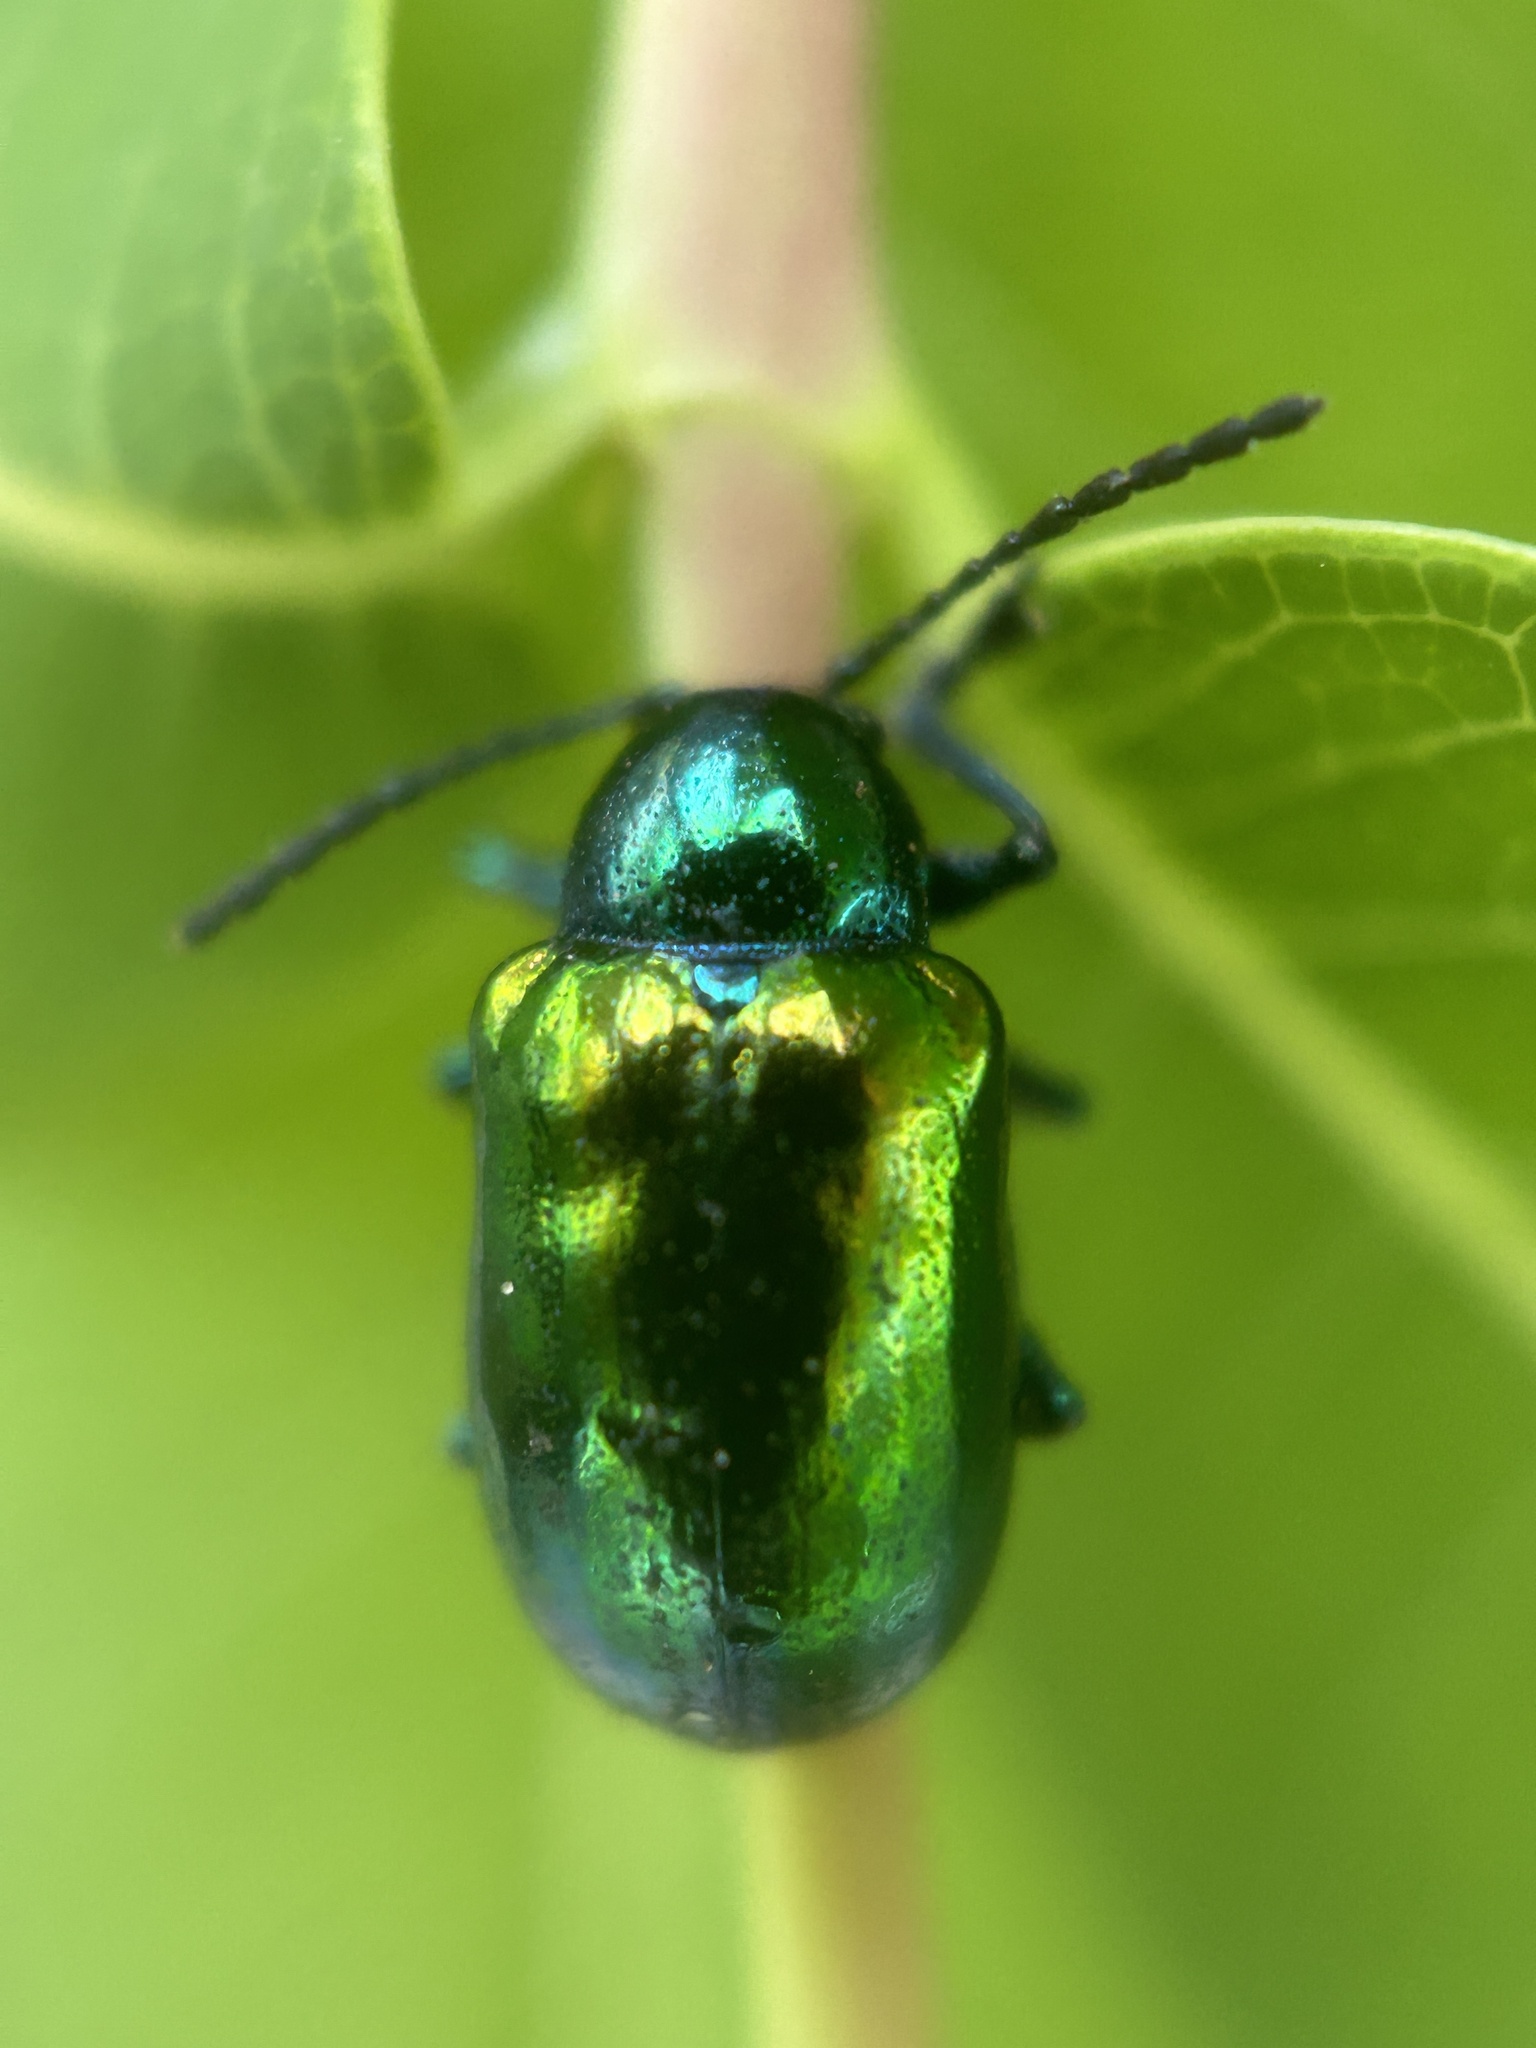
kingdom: Animalia
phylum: Arthropoda
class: Insecta
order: Coleoptera
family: Chrysomelidae
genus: Chrysochus
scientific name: Chrysochus auratus
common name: Dogbane leaf beetle
